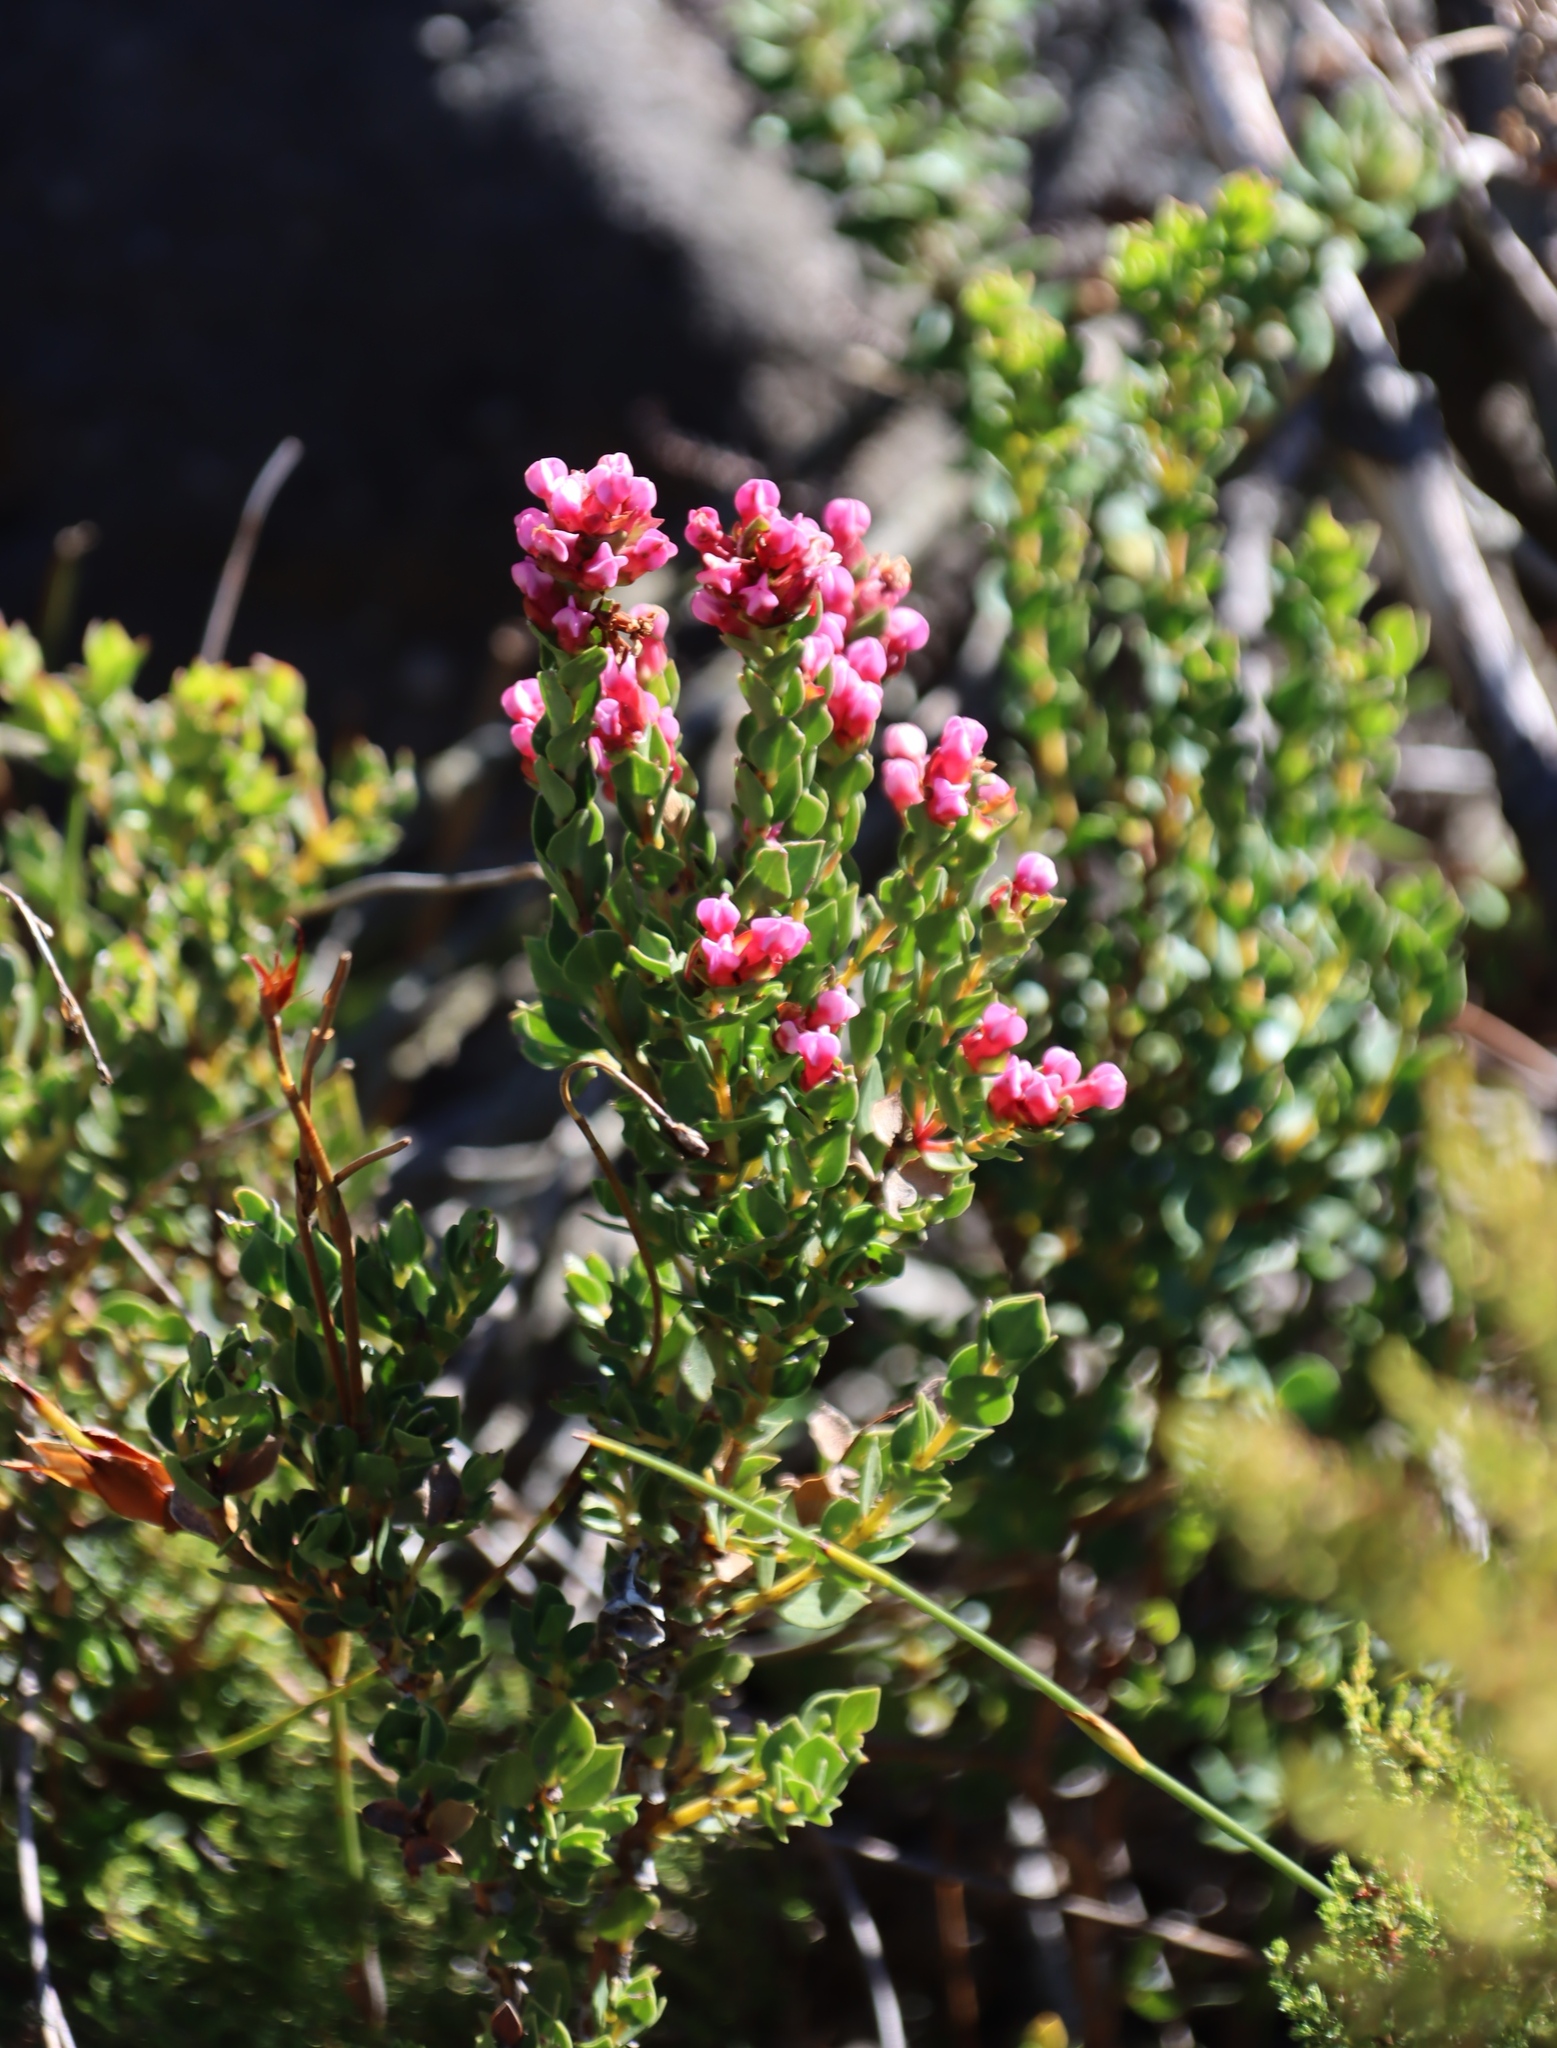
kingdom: Plantae
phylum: Tracheophyta
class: Magnoliopsida
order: Myrtales
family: Penaeaceae
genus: Brachysiphon
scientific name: Brachysiphon fucatus
